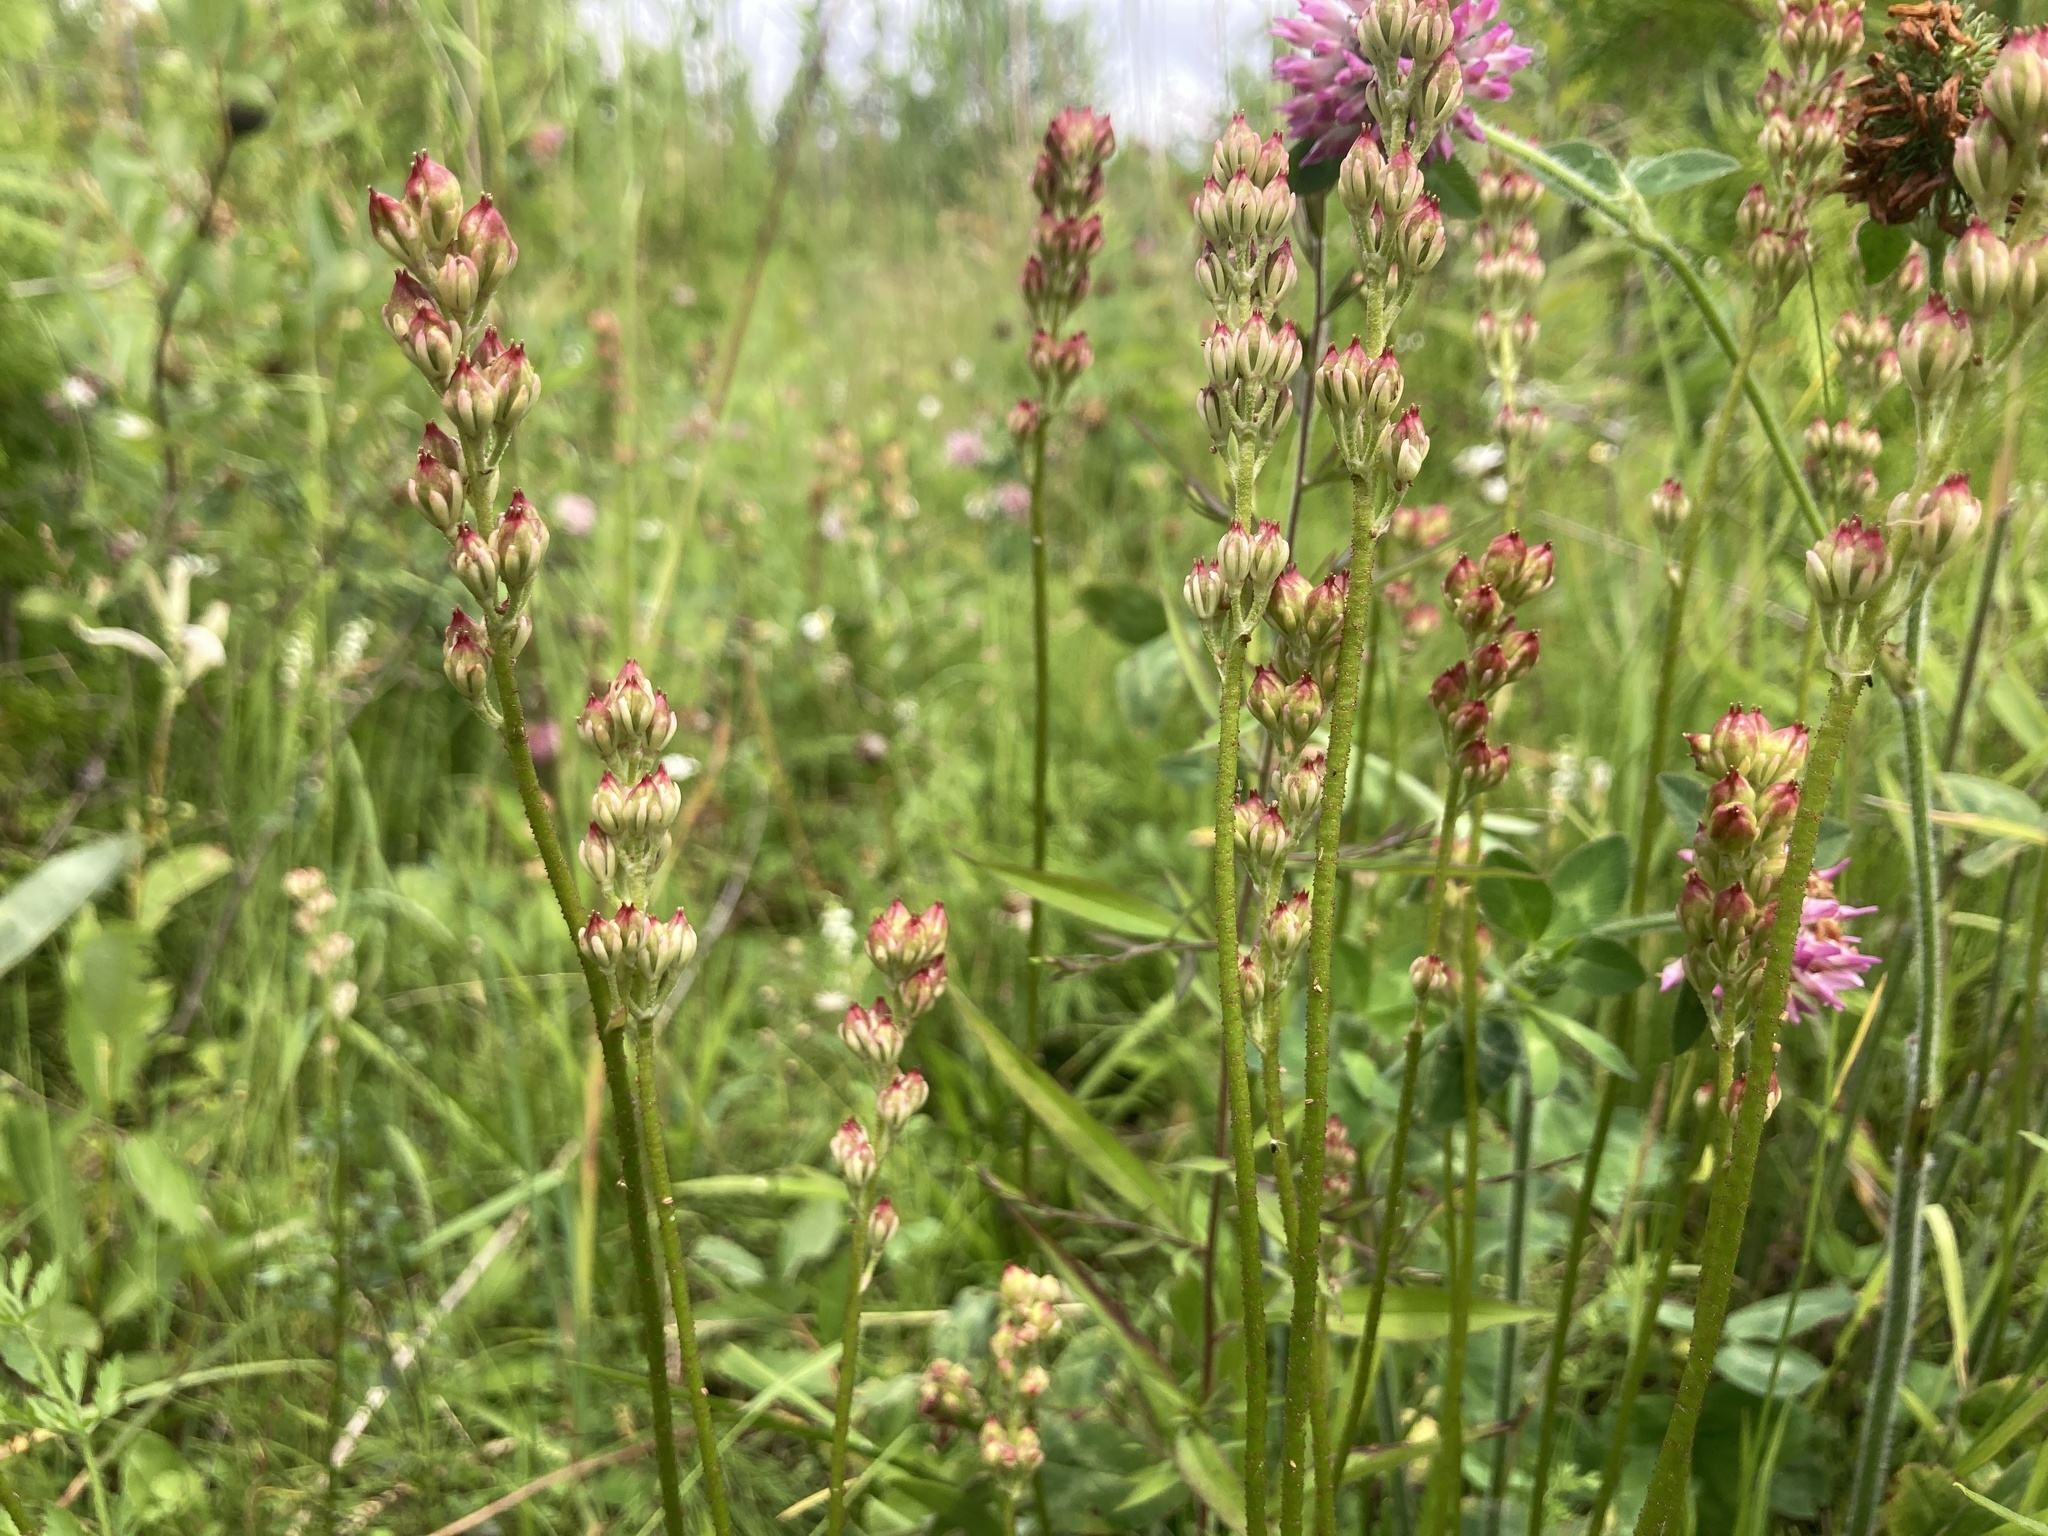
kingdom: Plantae
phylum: Tracheophyta
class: Liliopsida
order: Alismatales
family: Tofieldiaceae
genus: Triantha
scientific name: Triantha glutinosa
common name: Glutinous tofieldia
